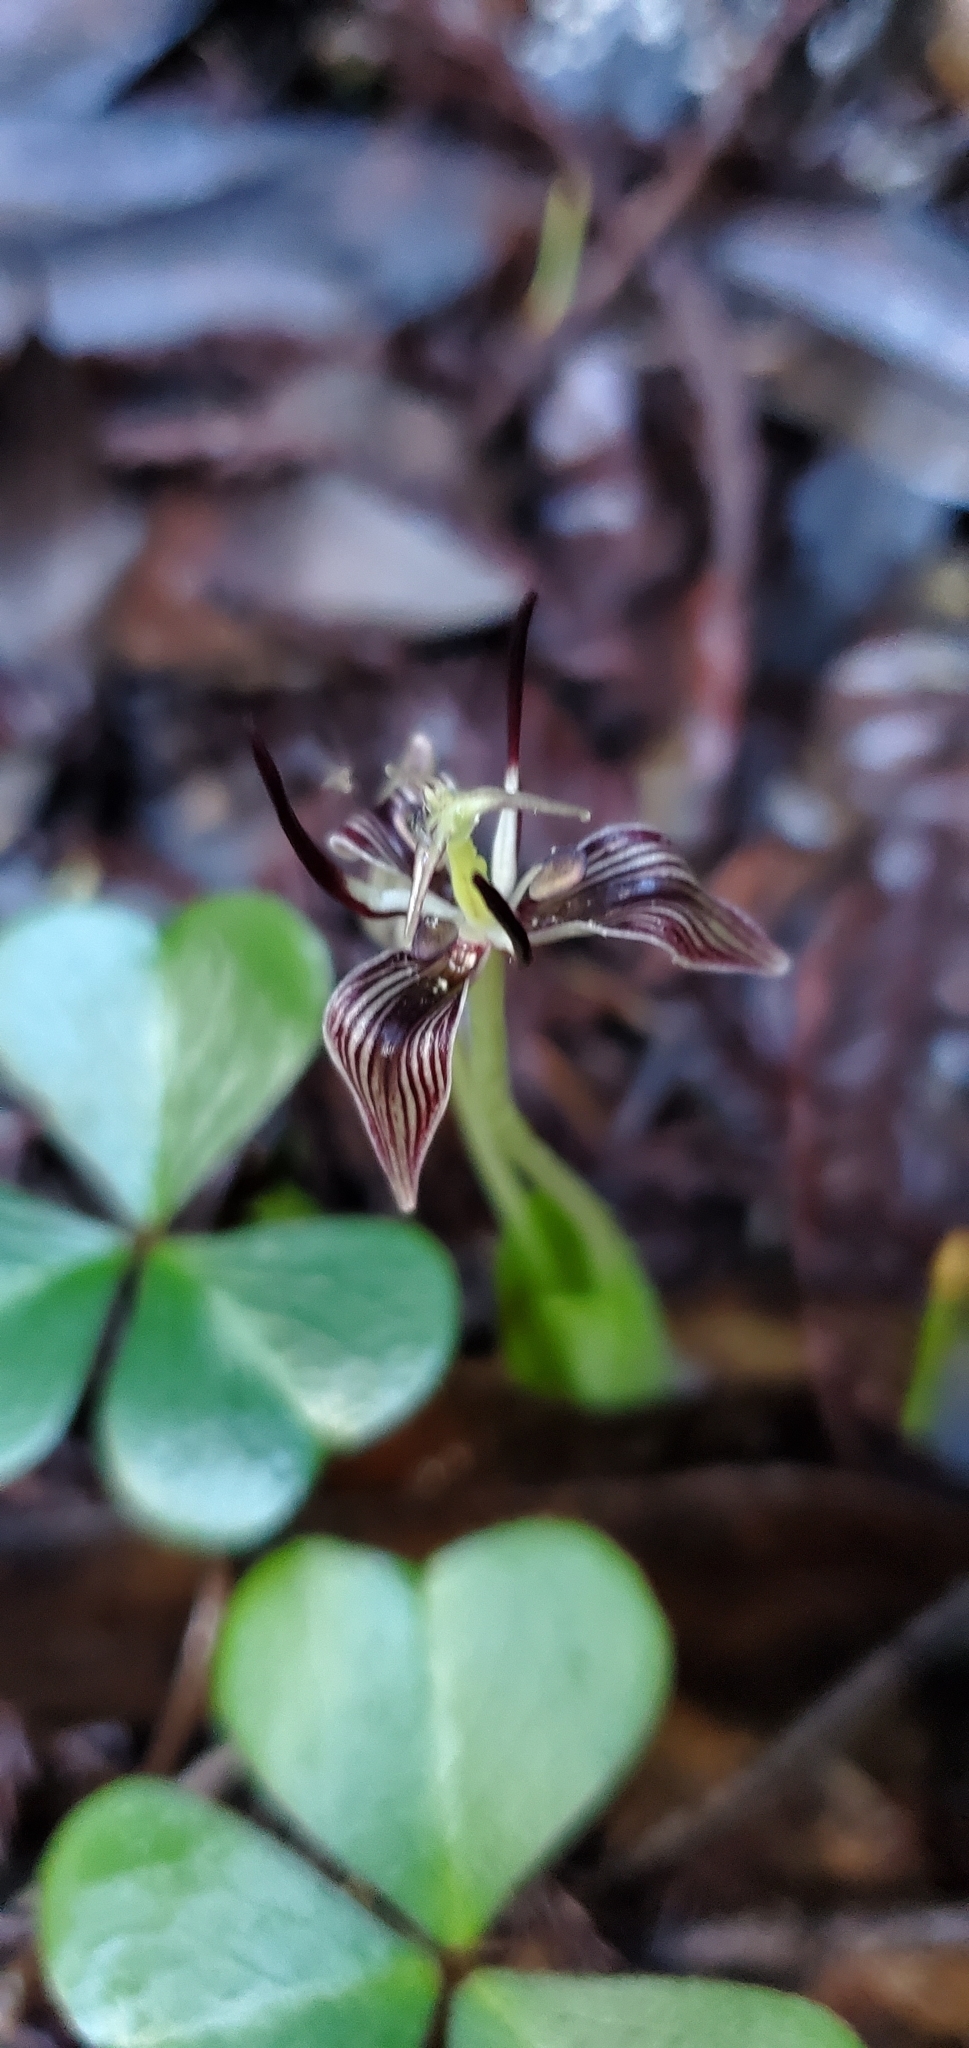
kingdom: Plantae
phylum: Tracheophyta
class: Liliopsida
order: Liliales
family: Liliaceae
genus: Scoliopus
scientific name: Scoliopus bigelovii
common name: Foetid adder's-tongue
